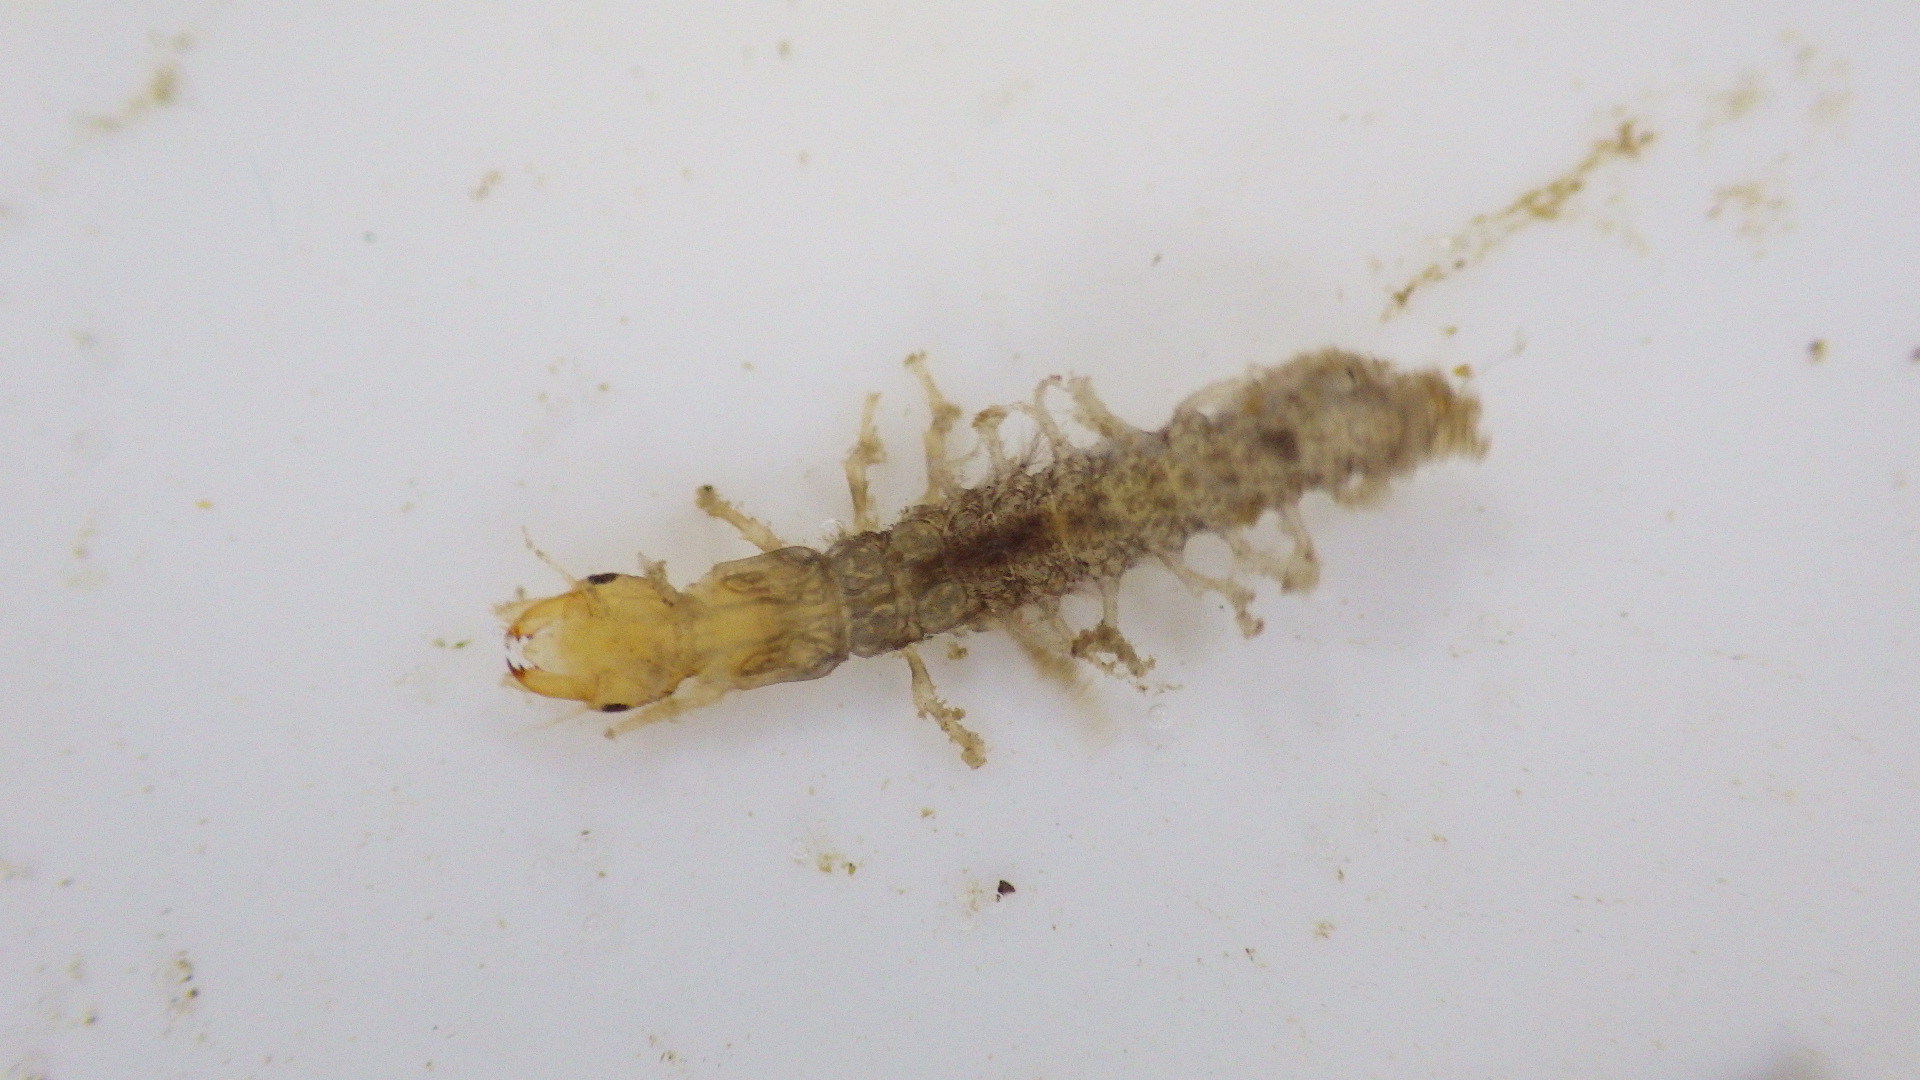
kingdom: Animalia
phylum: Arthropoda
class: Insecta
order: Megaloptera
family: Corydalidae
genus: Corydalus
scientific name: Corydalus cornutus
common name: Dobsonfly
